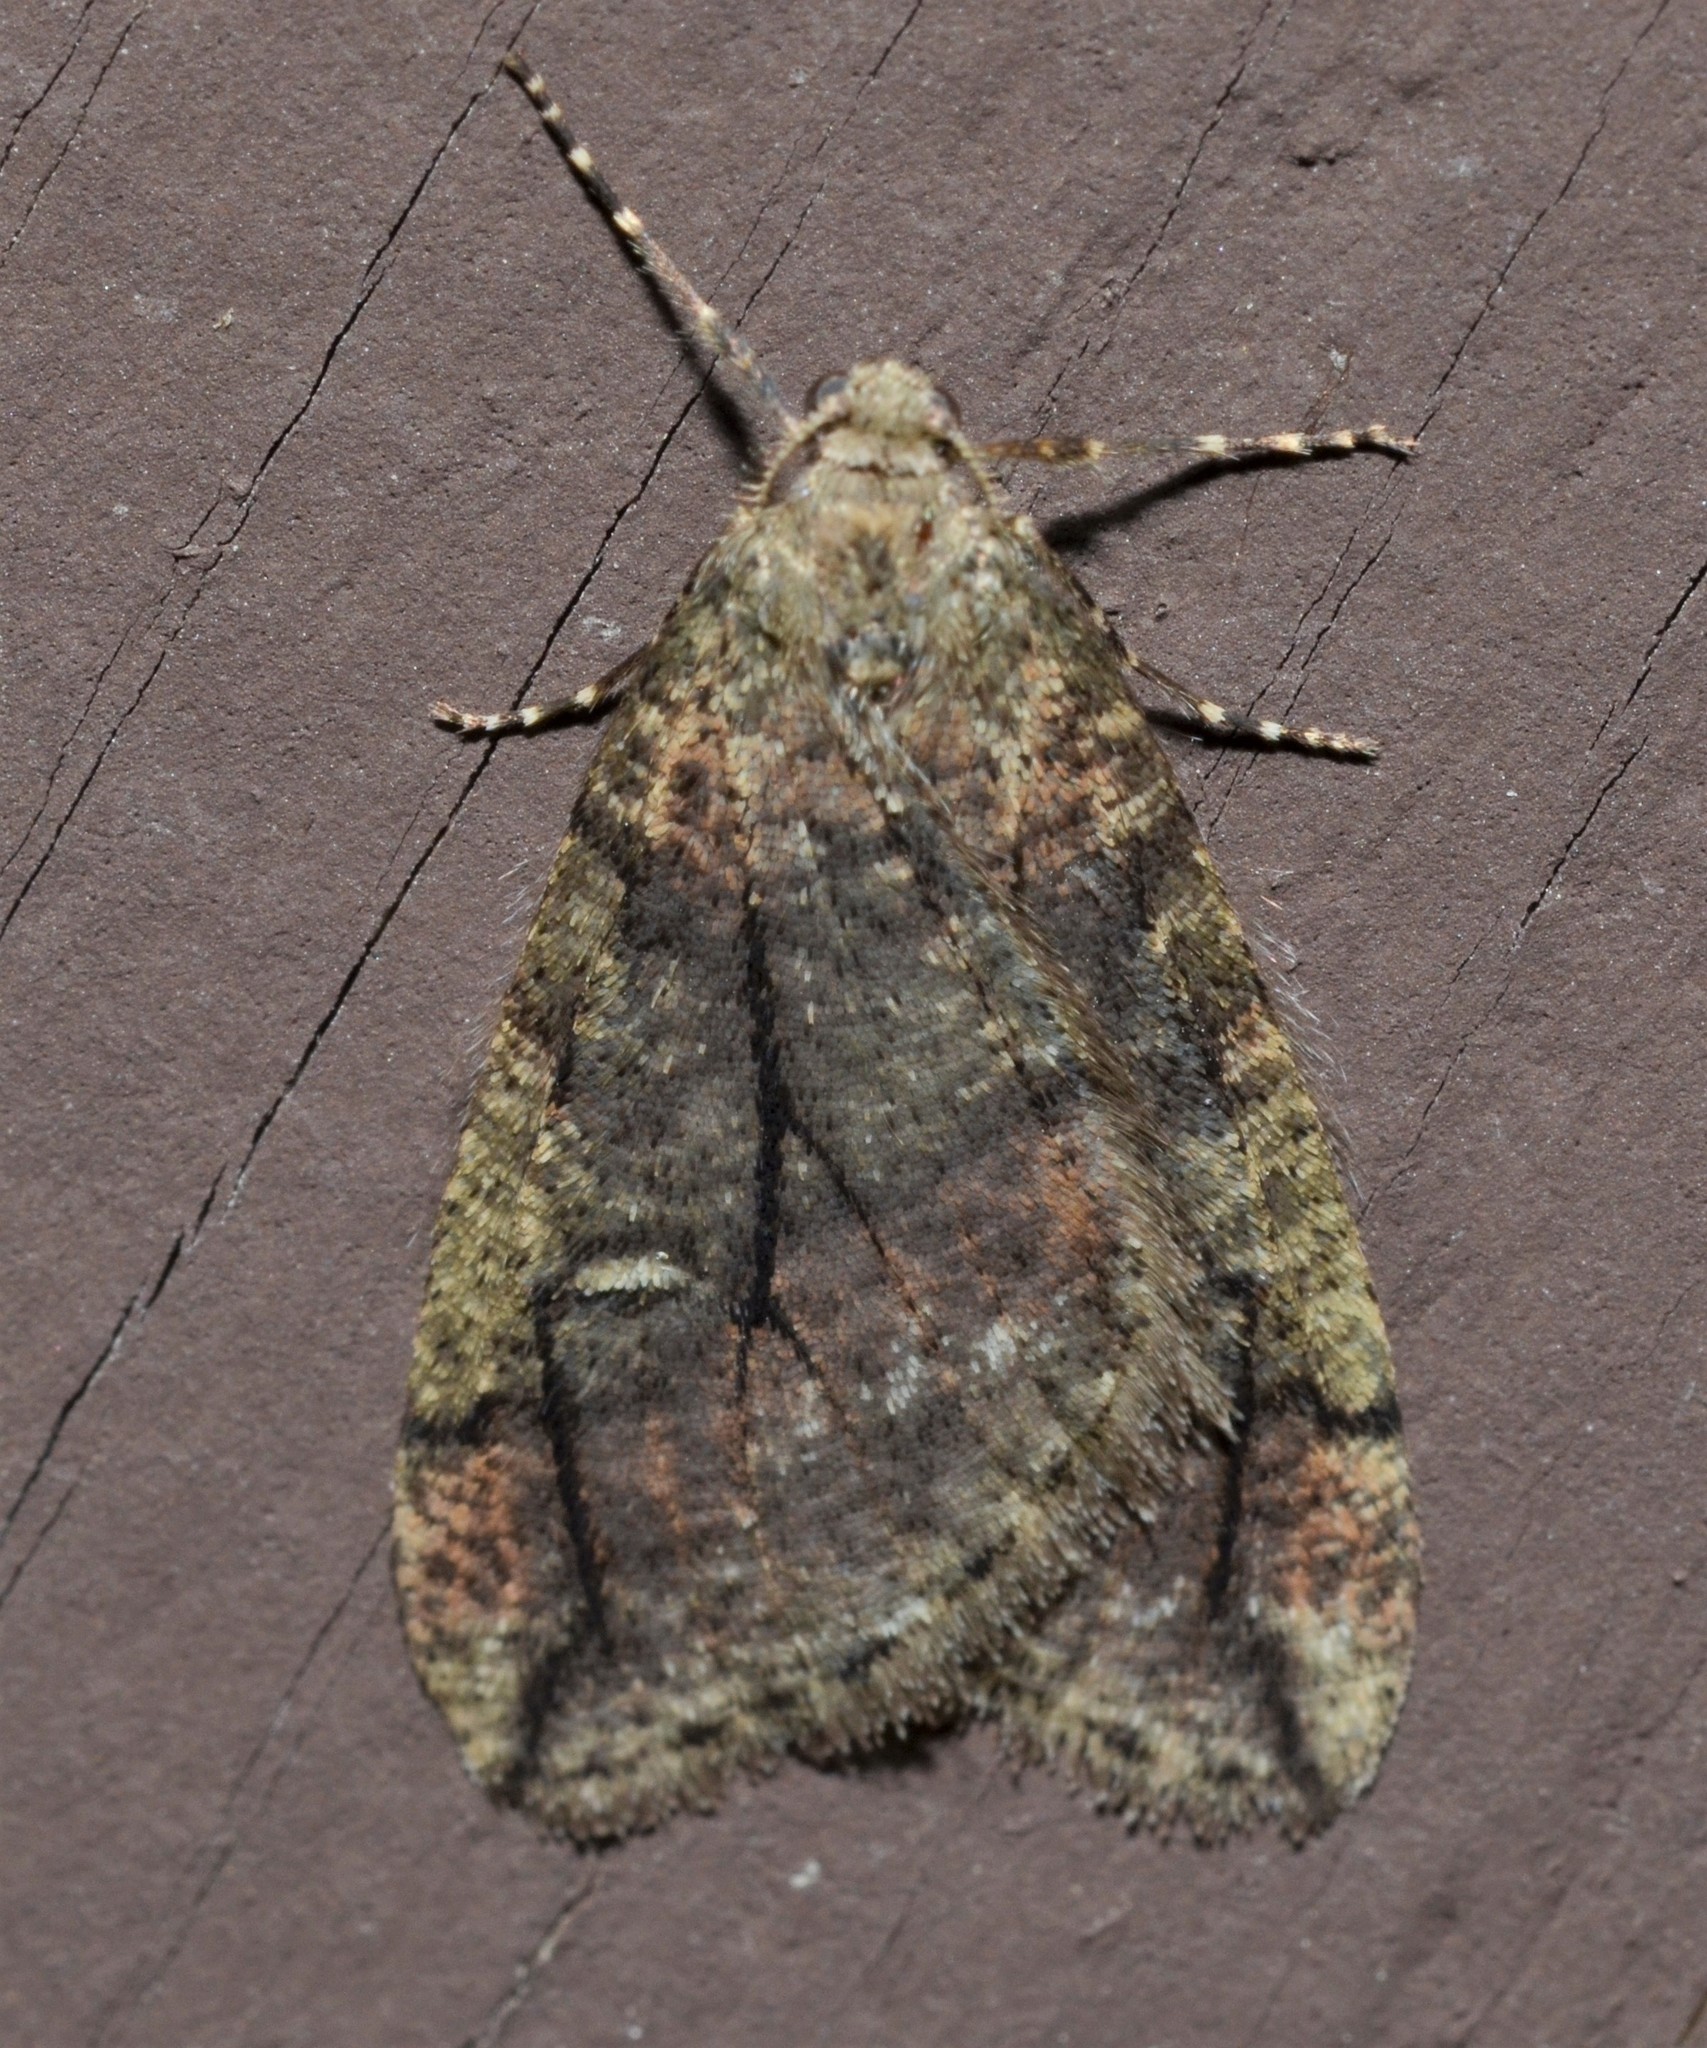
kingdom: Animalia
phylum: Arthropoda
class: Insecta
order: Lepidoptera
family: Geometridae
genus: Paleacrita
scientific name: Paleacrita merriccata
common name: White-spotted canker worm
